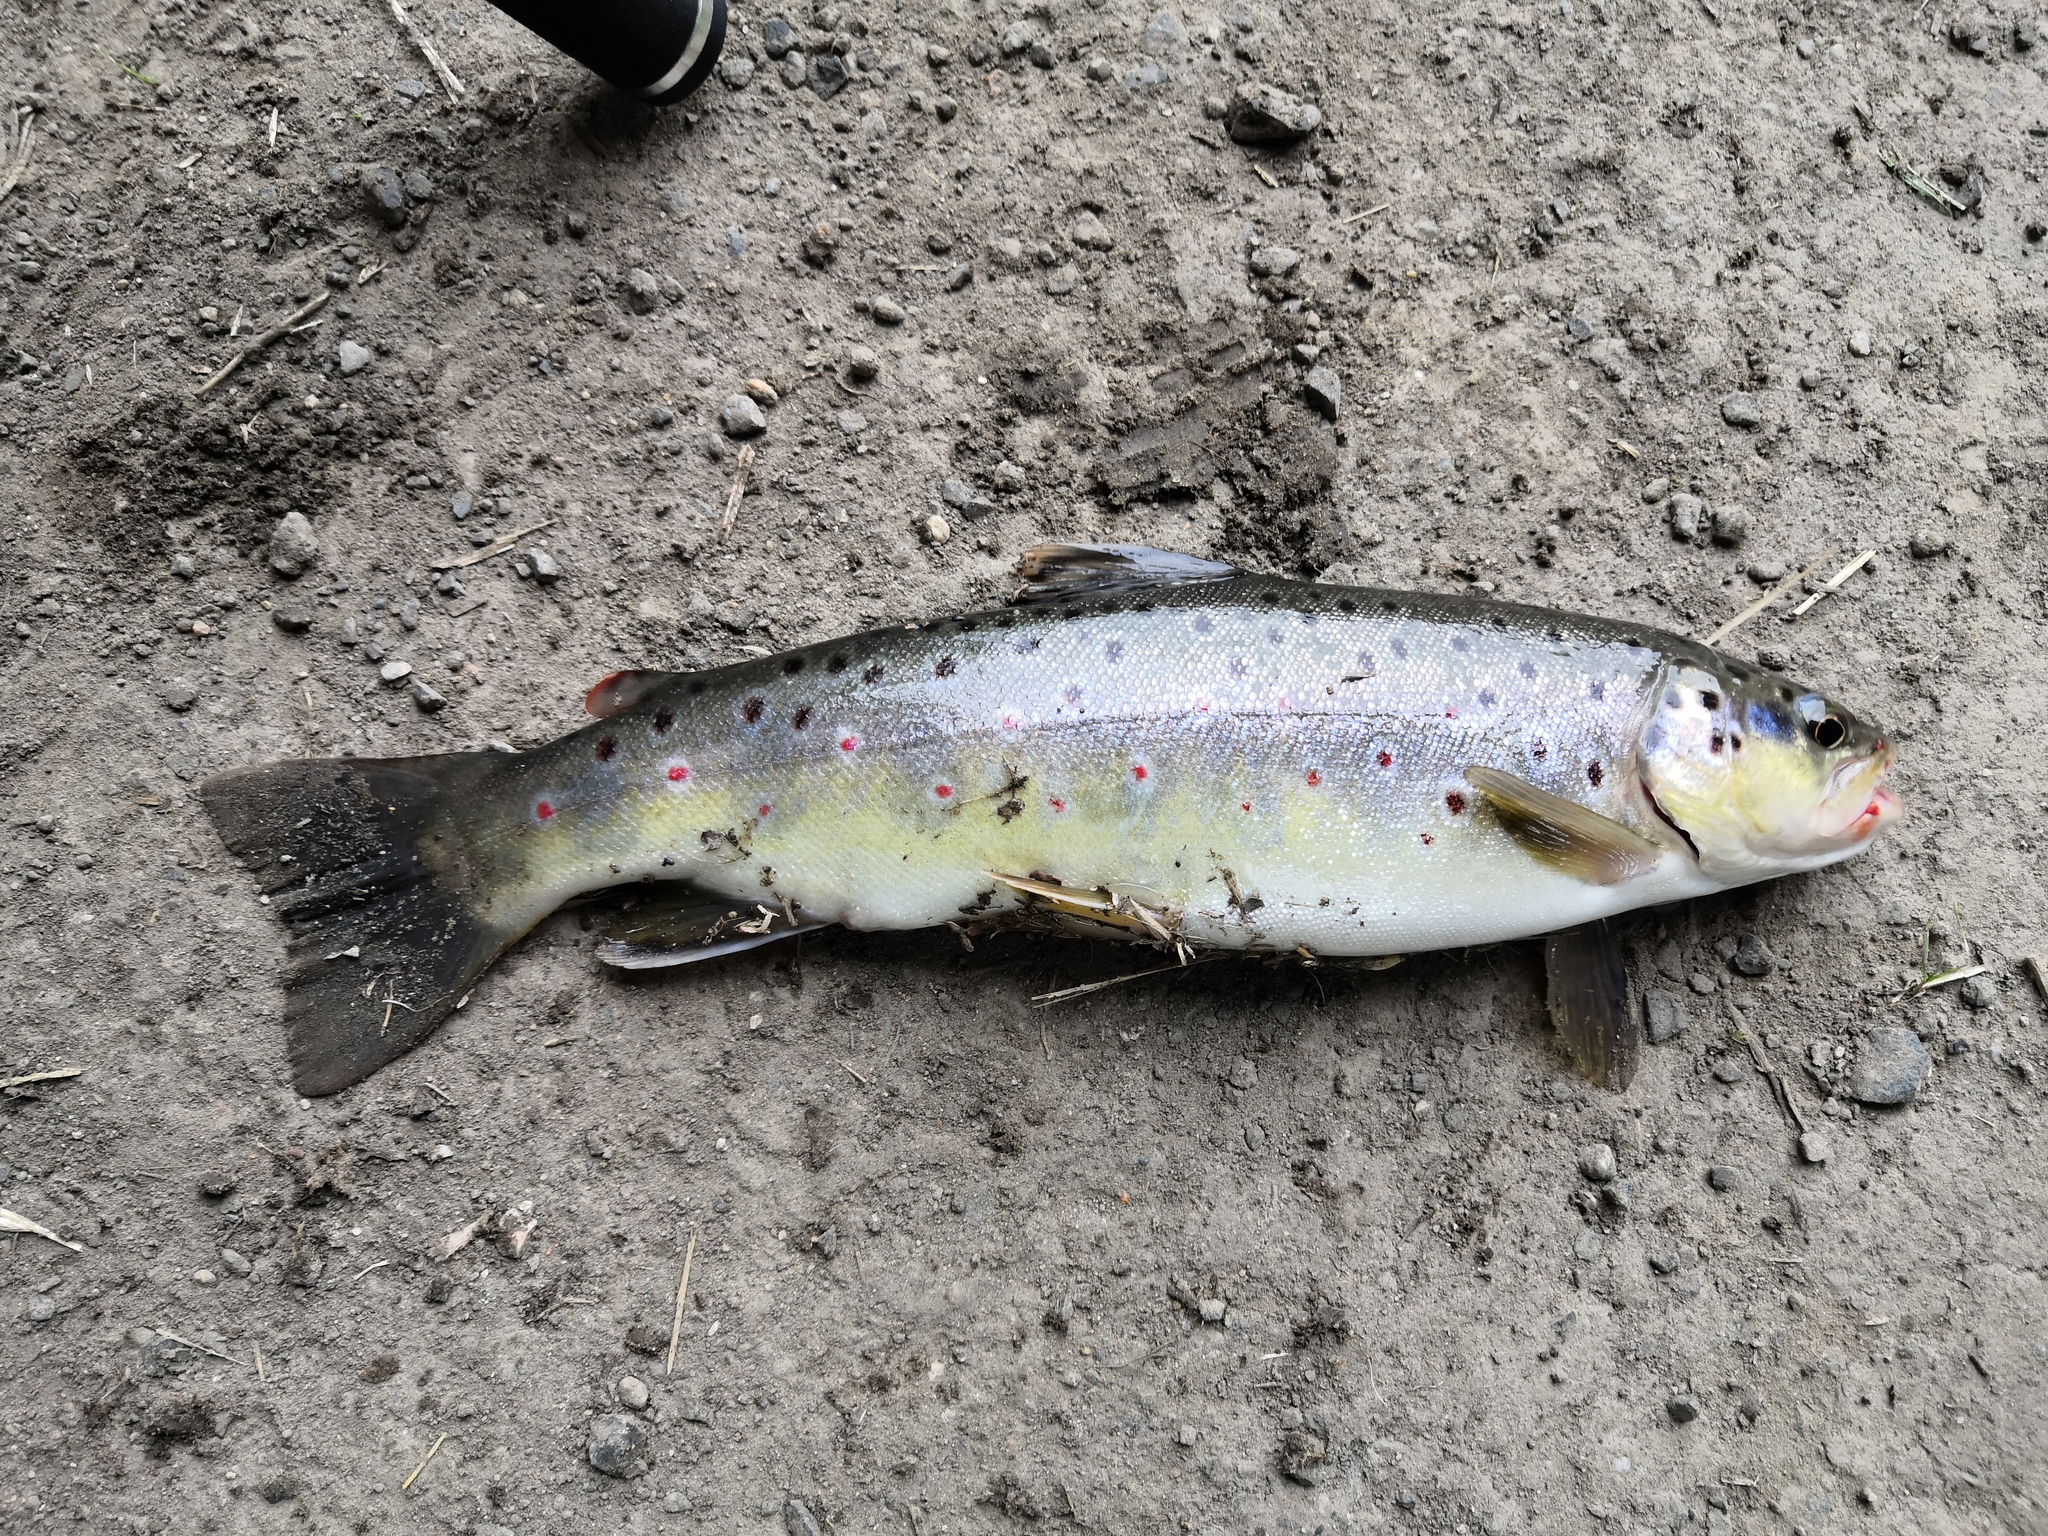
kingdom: Animalia
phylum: Chordata
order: Salmoniformes
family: Salmonidae
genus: Salmo
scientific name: Salmo trutta
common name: Brown trout
